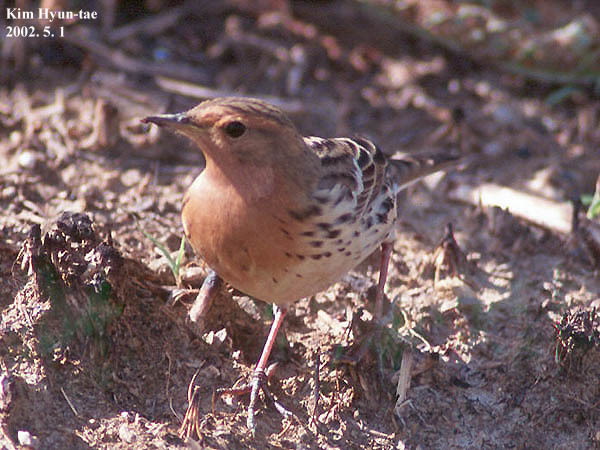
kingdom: Animalia
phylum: Chordata
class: Aves
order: Passeriformes
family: Motacillidae
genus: Anthus
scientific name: Anthus cervinus
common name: Red-throated pipit
